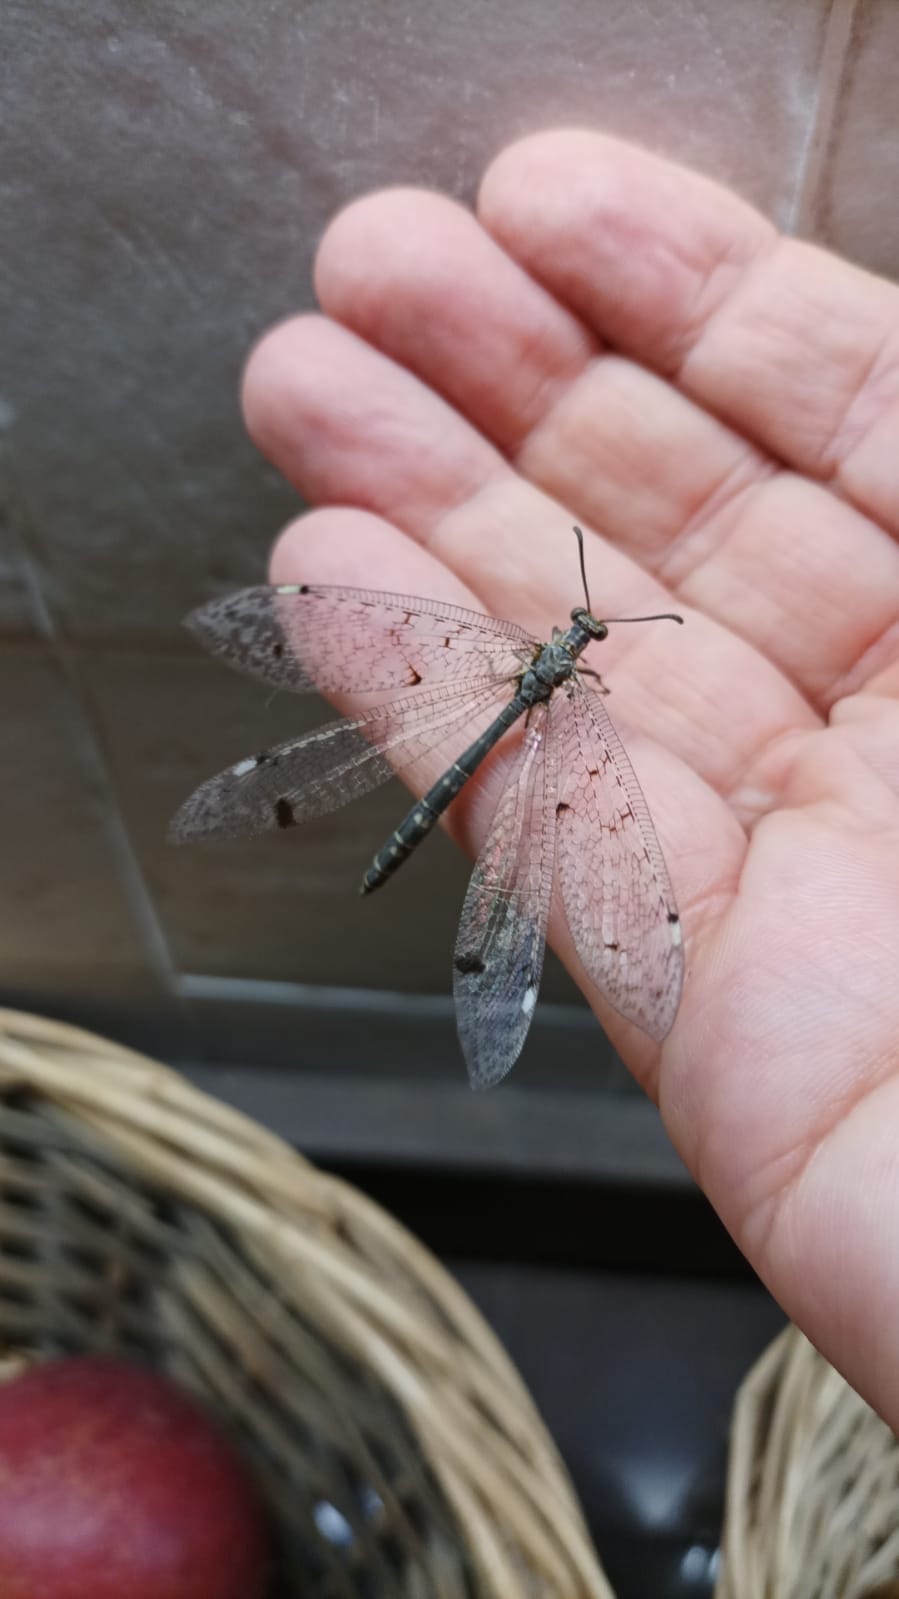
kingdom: Animalia
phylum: Arthropoda
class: Insecta
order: Neuroptera
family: Myrmeleontidae
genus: Distoleon
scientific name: Distoleon tetragrammicus
